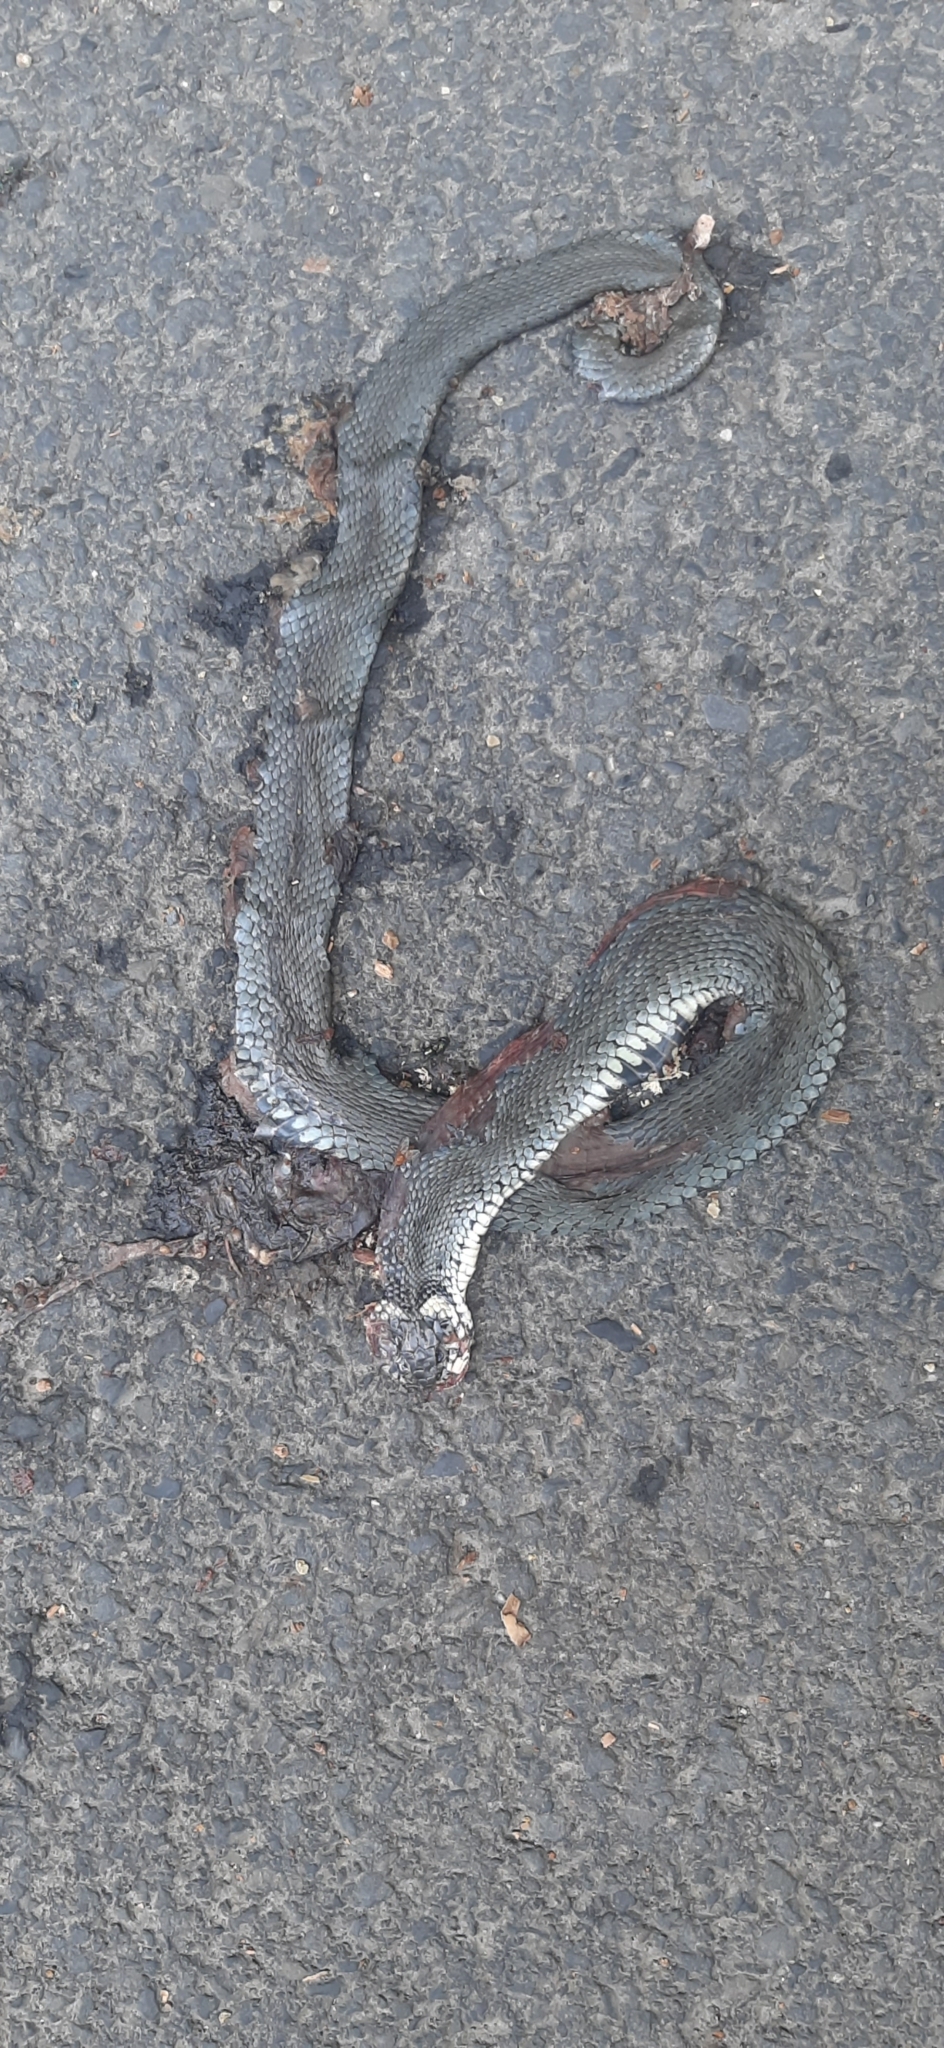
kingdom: Animalia
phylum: Chordata
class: Squamata
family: Colubridae
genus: Natrix
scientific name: Natrix natrix
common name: Grass snake
